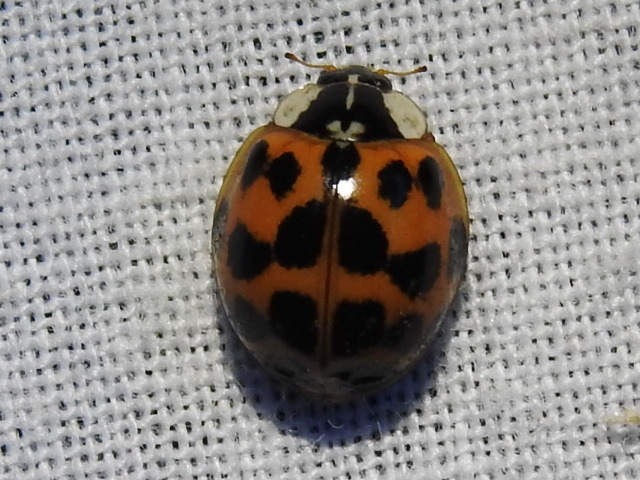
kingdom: Animalia
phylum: Arthropoda
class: Insecta
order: Coleoptera
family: Coccinellidae
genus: Harmonia
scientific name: Harmonia axyridis
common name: Harlequin ladybird
